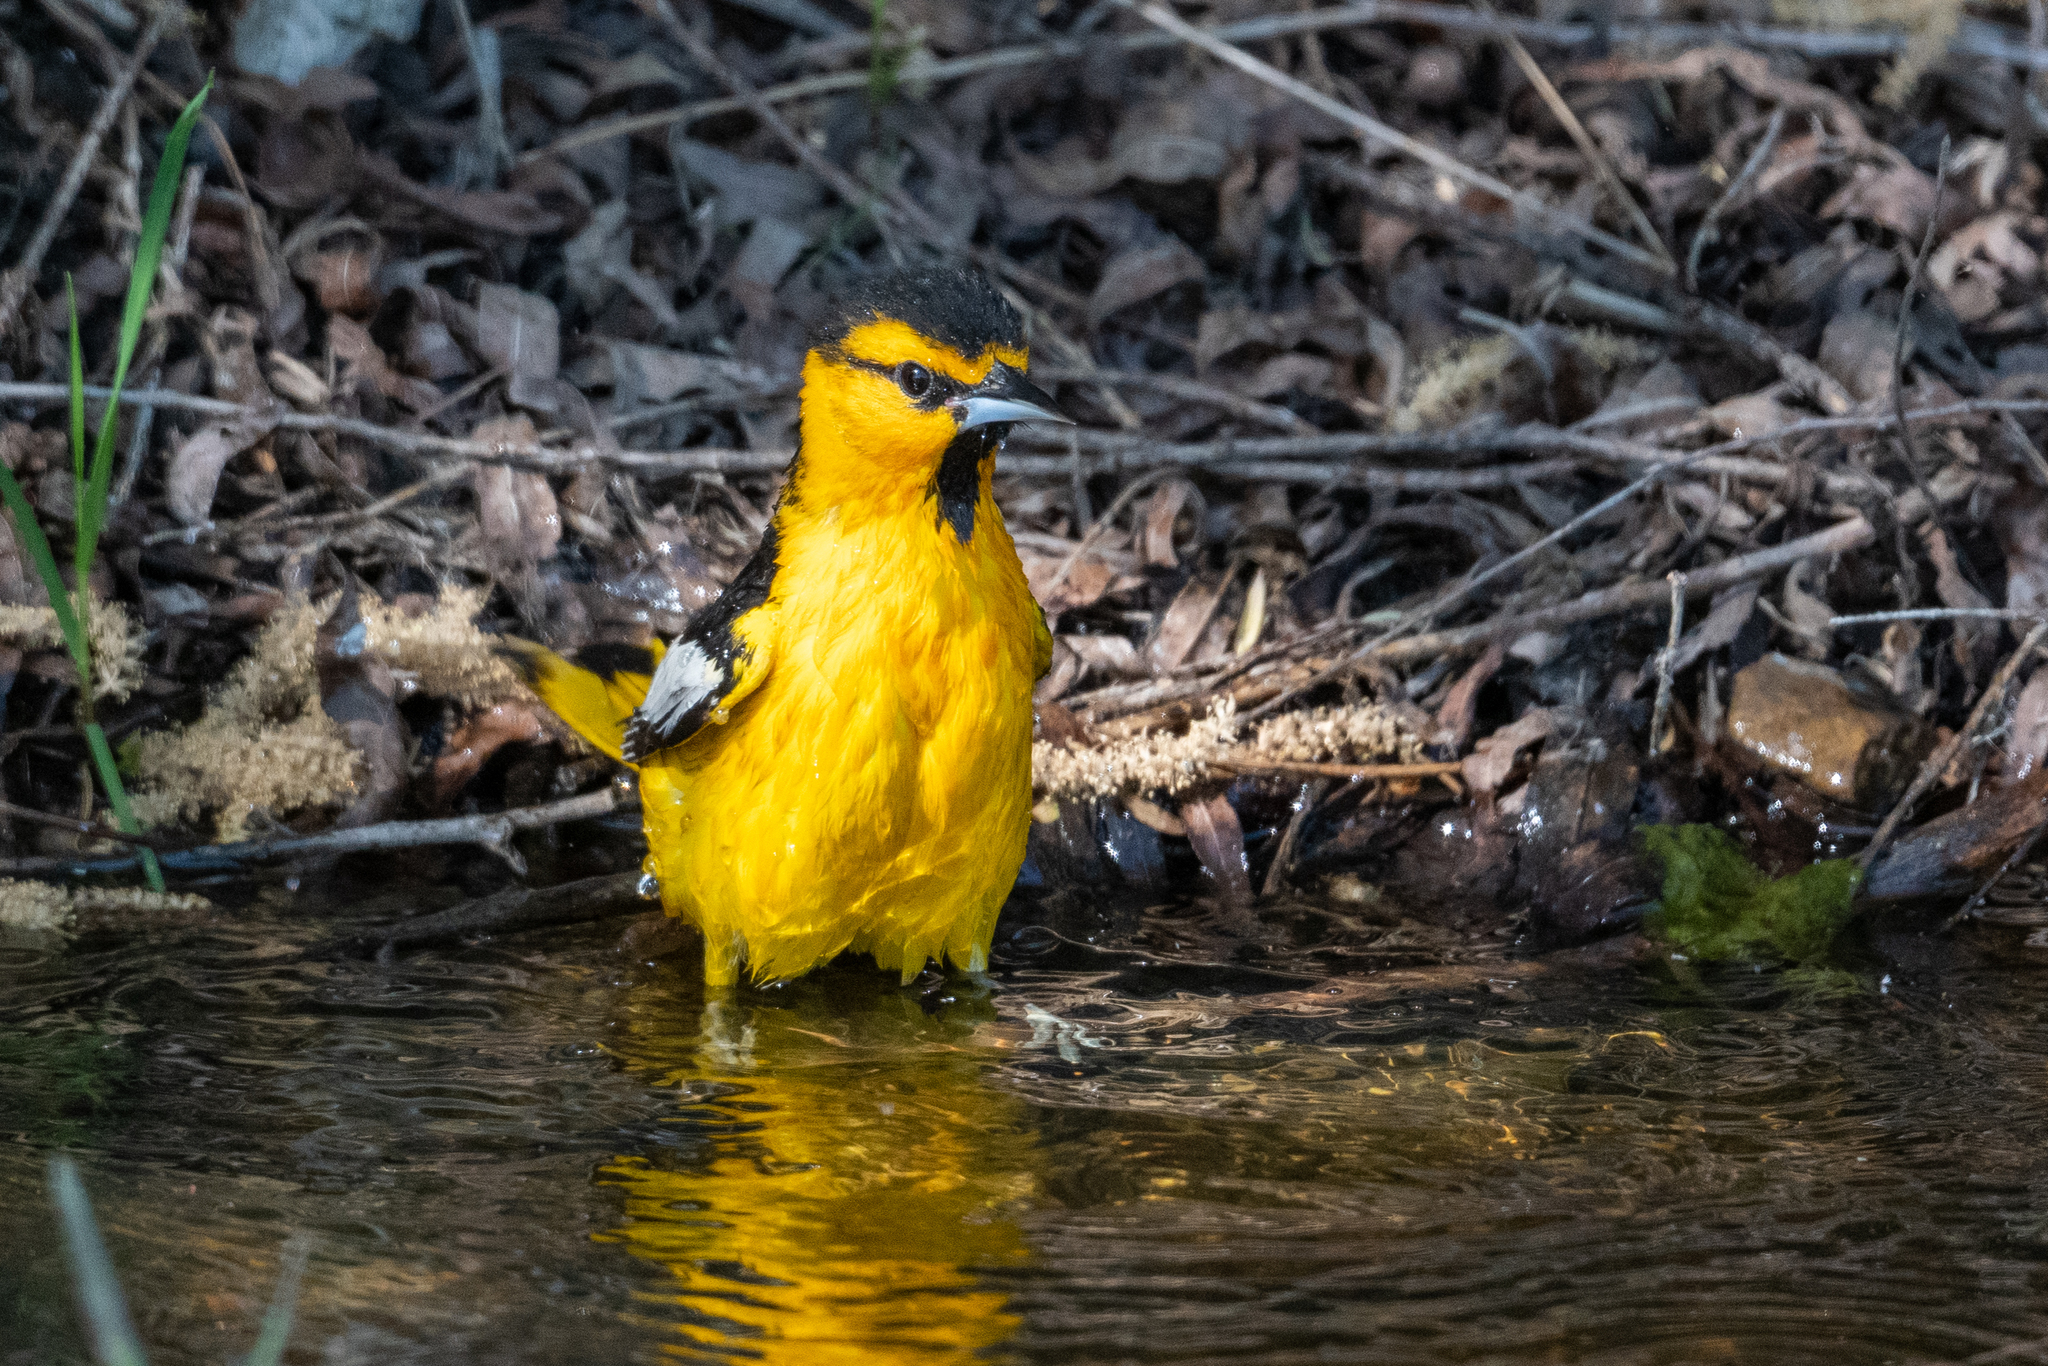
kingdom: Animalia
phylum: Chordata
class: Aves
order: Passeriformes
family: Icteridae
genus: Icterus
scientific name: Icterus bullockii
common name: Bullock's oriole
